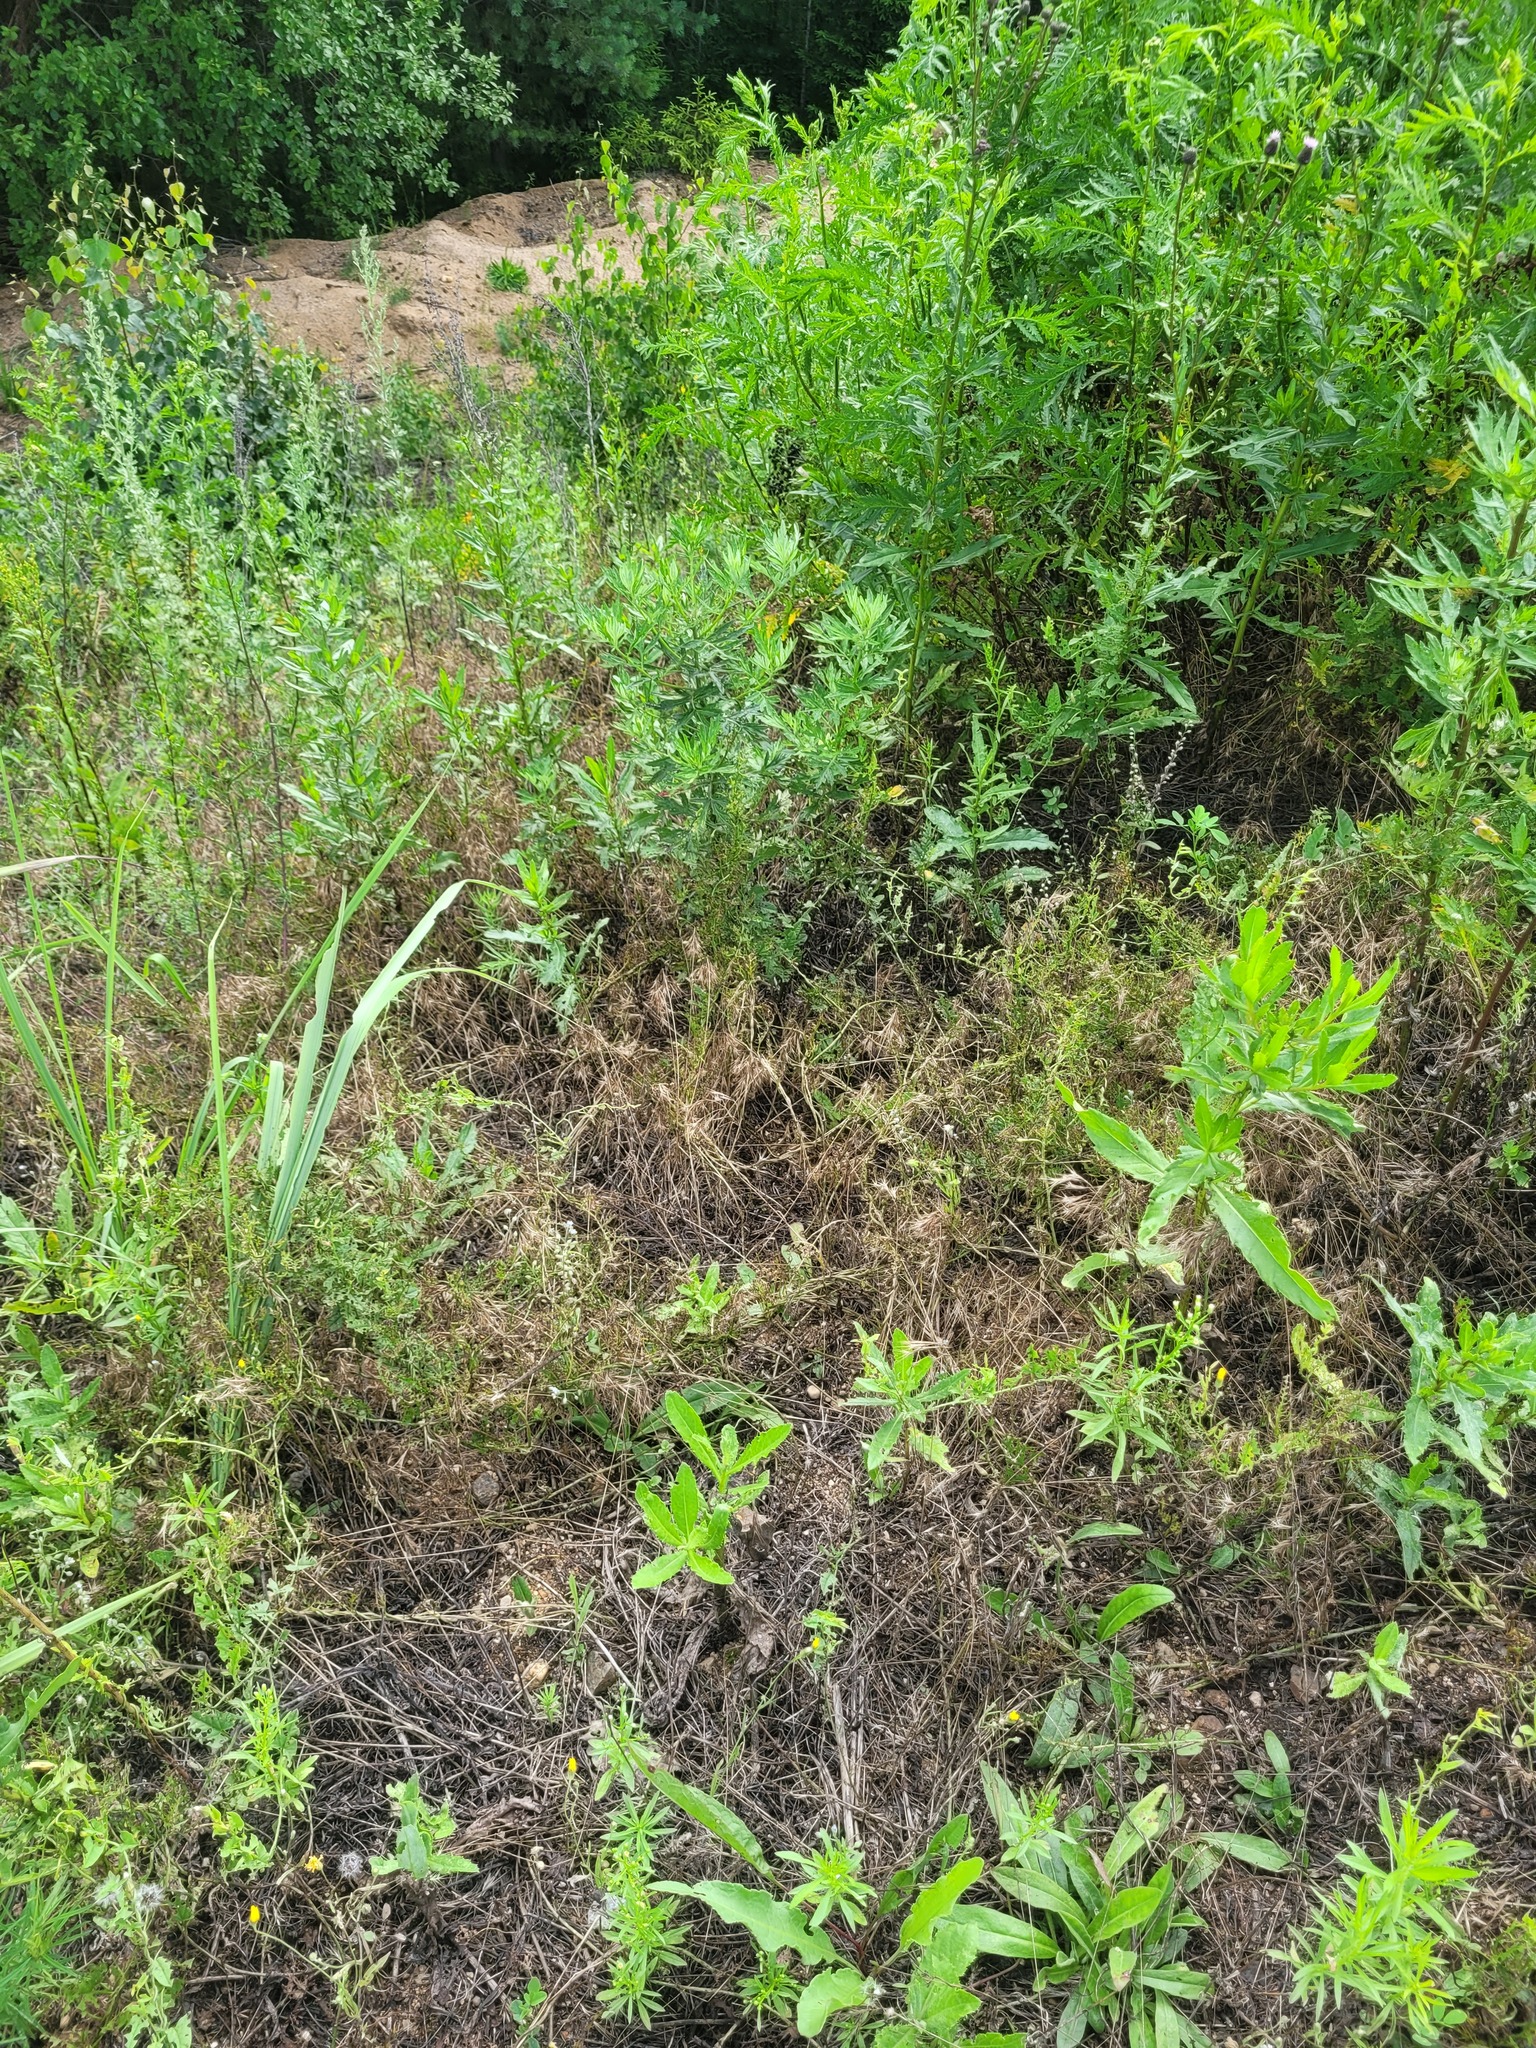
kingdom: Plantae
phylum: Tracheophyta
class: Liliopsida
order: Poales
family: Poaceae
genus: Bromus
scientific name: Bromus tectorum
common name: Cheatgrass
